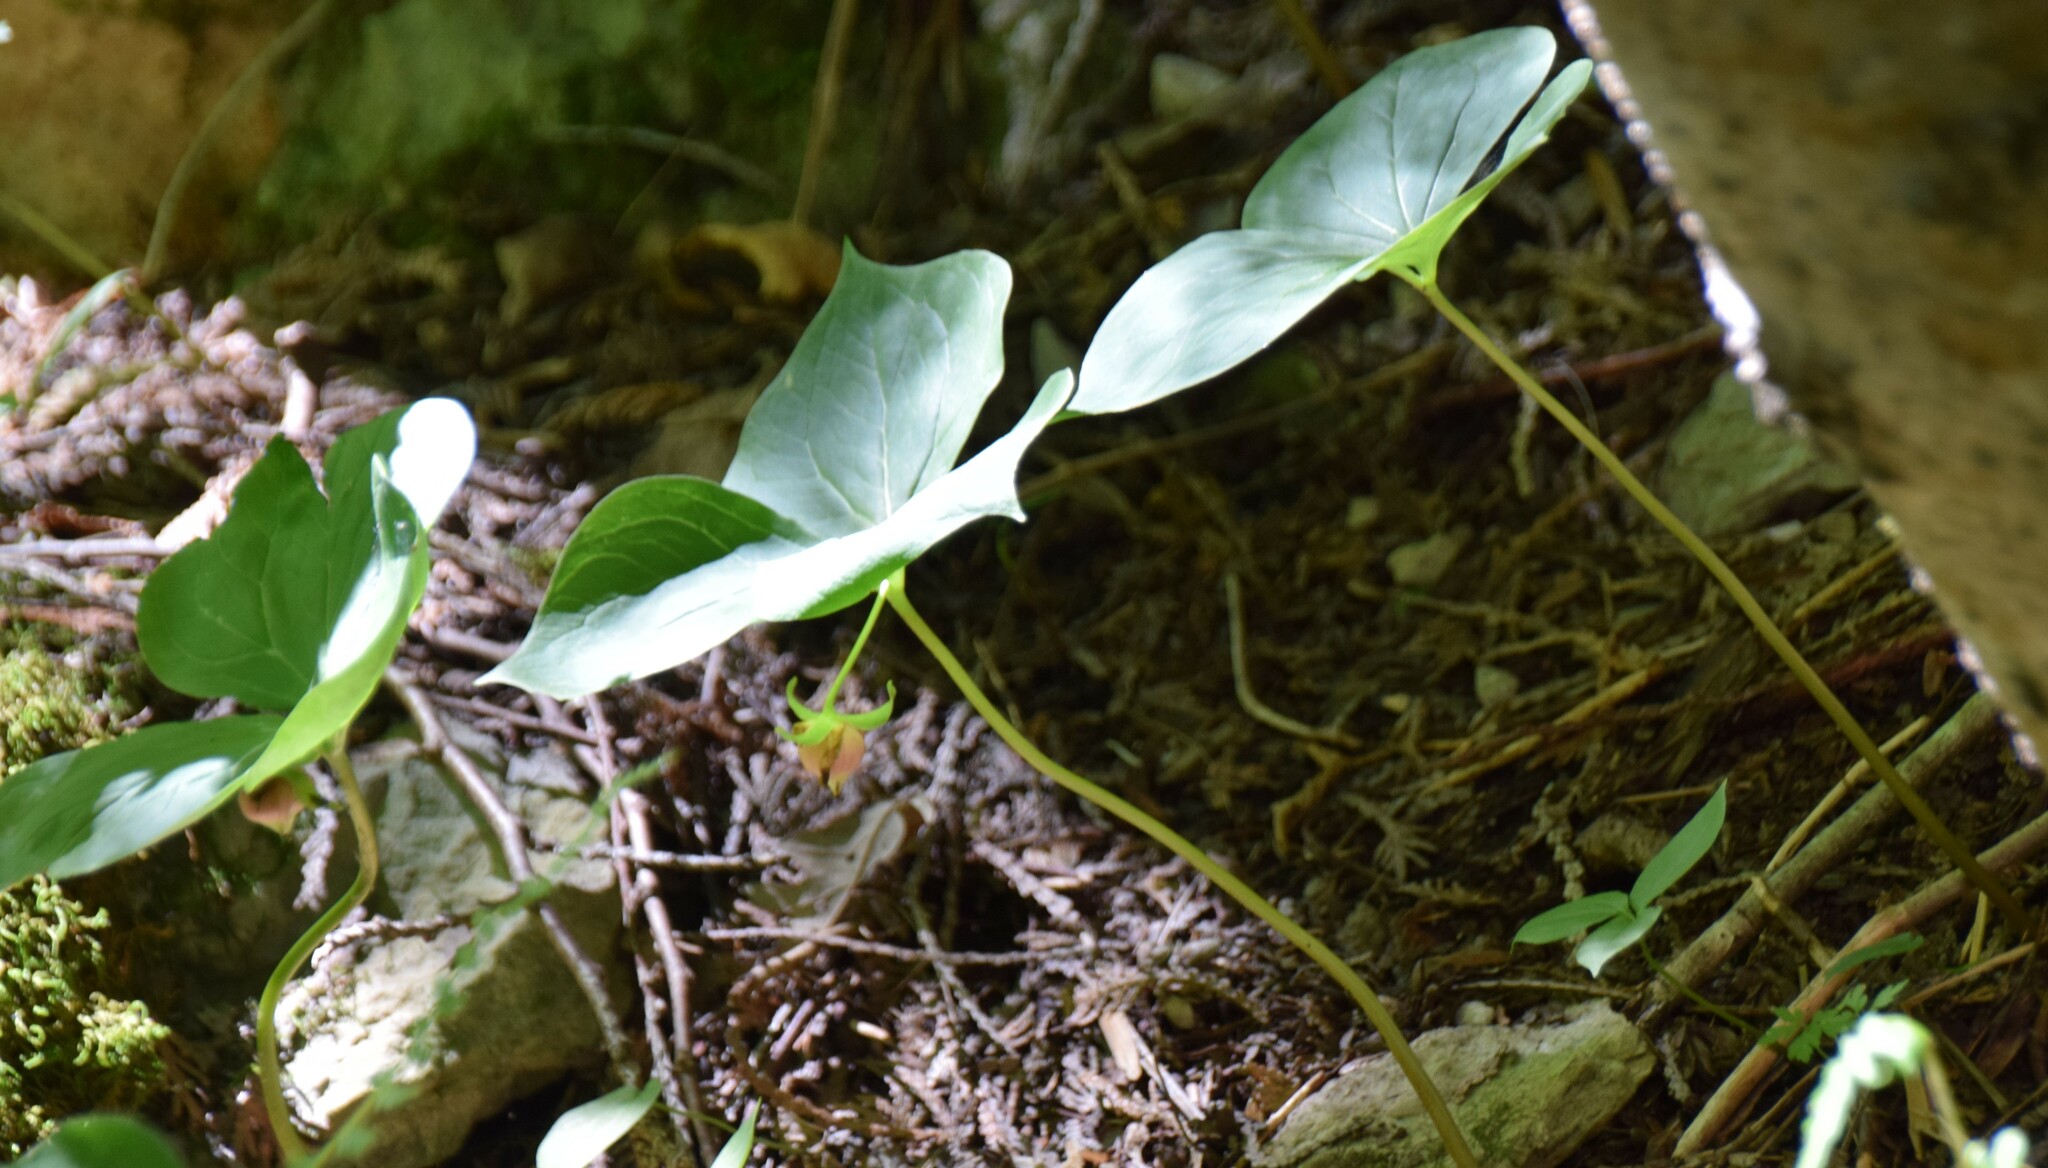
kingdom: Plantae
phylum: Tracheophyta
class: Liliopsida
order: Liliales
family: Melanthiaceae
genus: Trillium
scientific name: Trillium cernuum
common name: Nodding trillium
